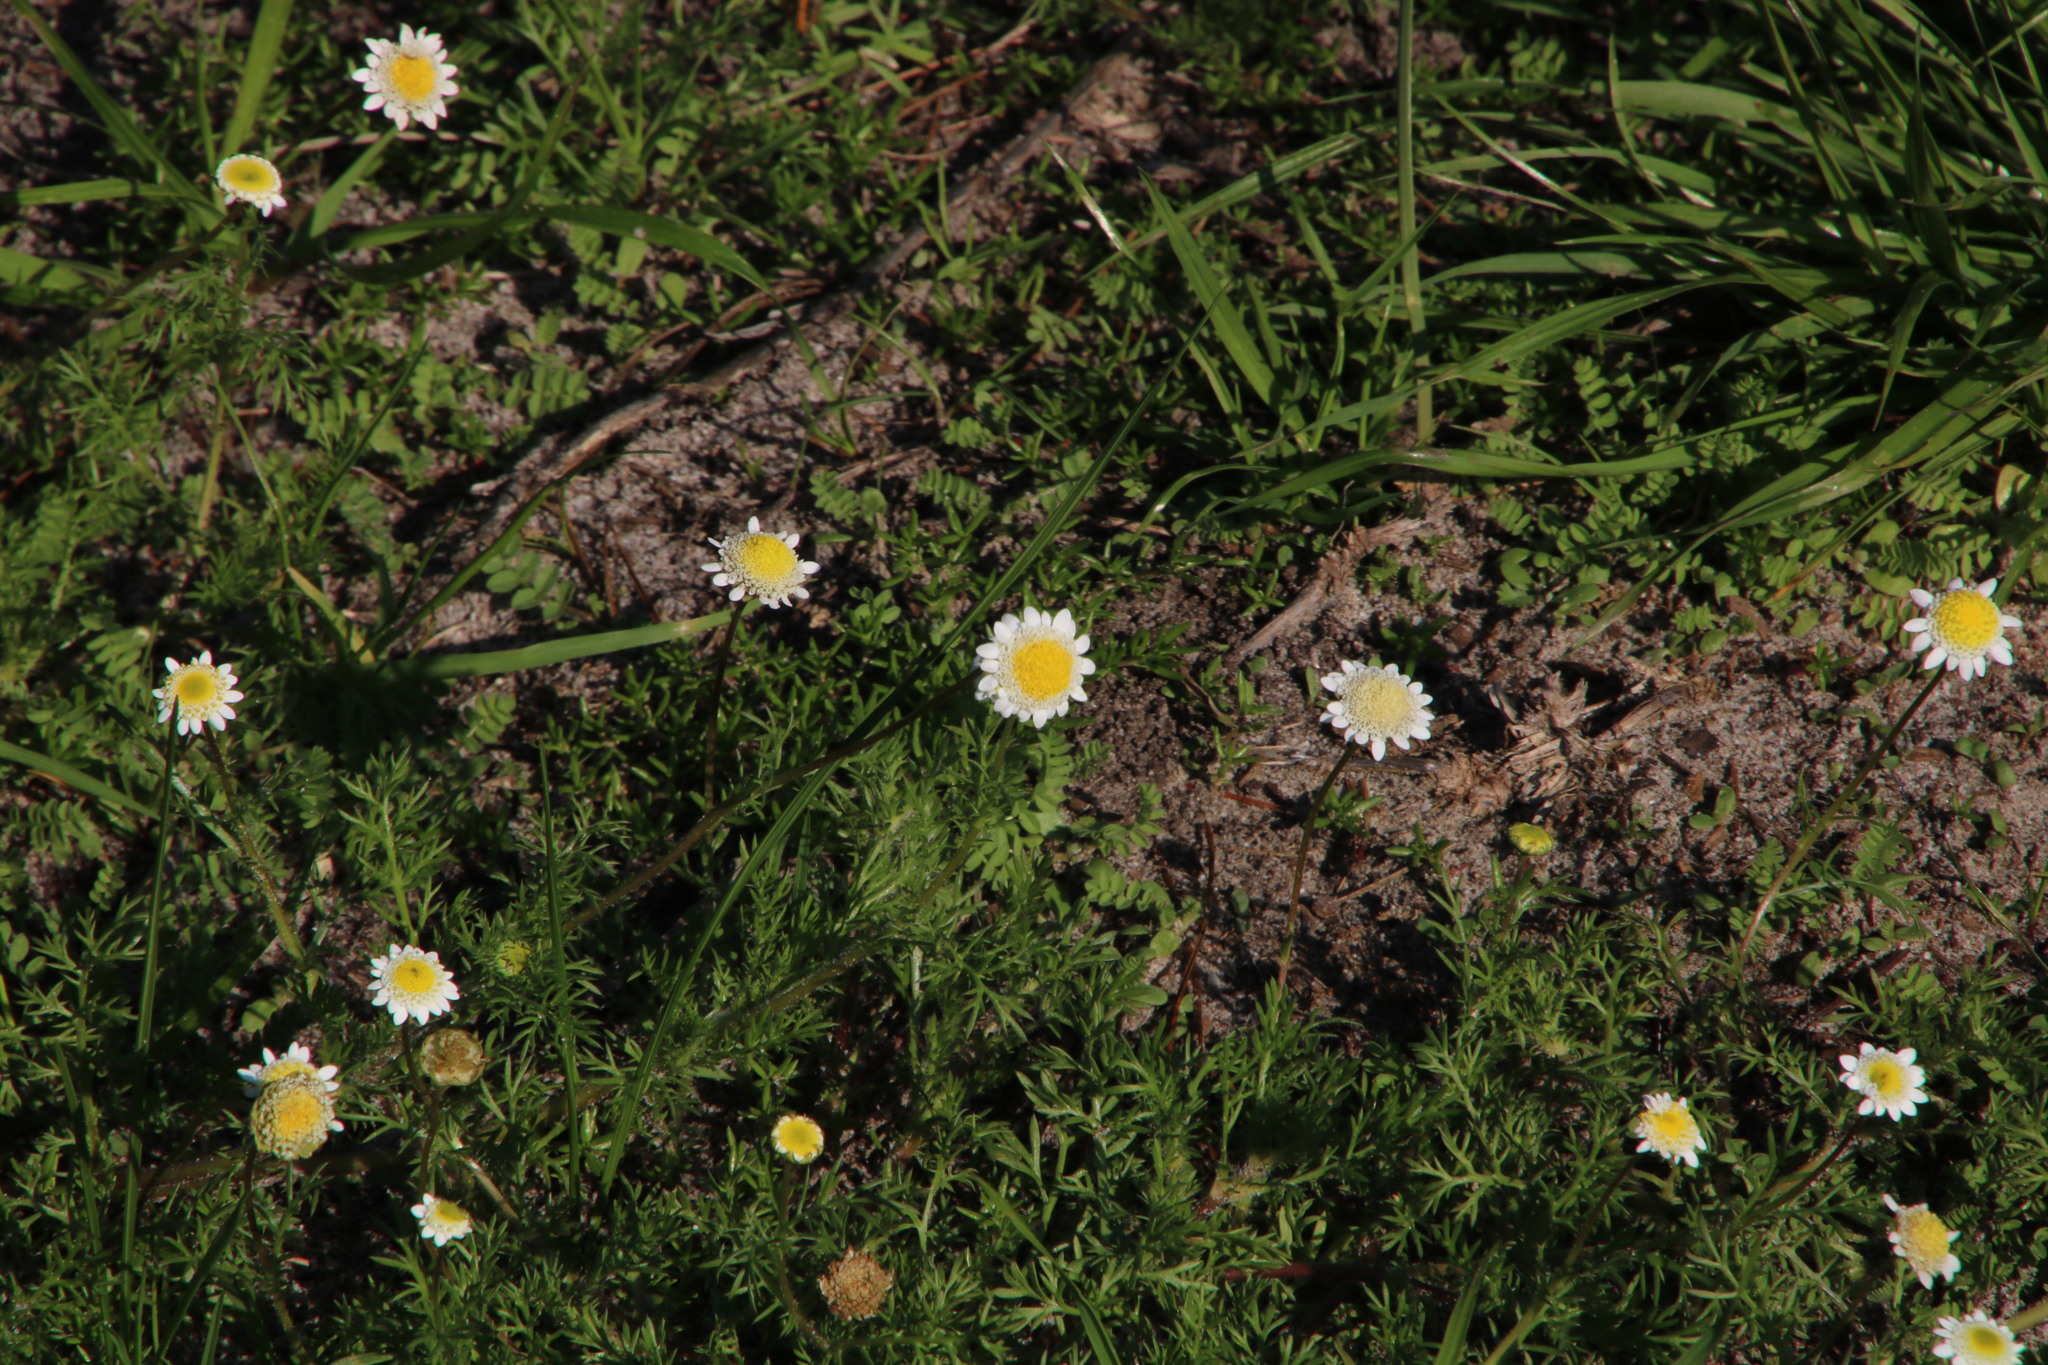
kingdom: Plantae
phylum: Tracheophyta
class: Magnoliopsida
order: Asterales
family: Asteraceae
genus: Cotula
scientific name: Cotula turbinata
